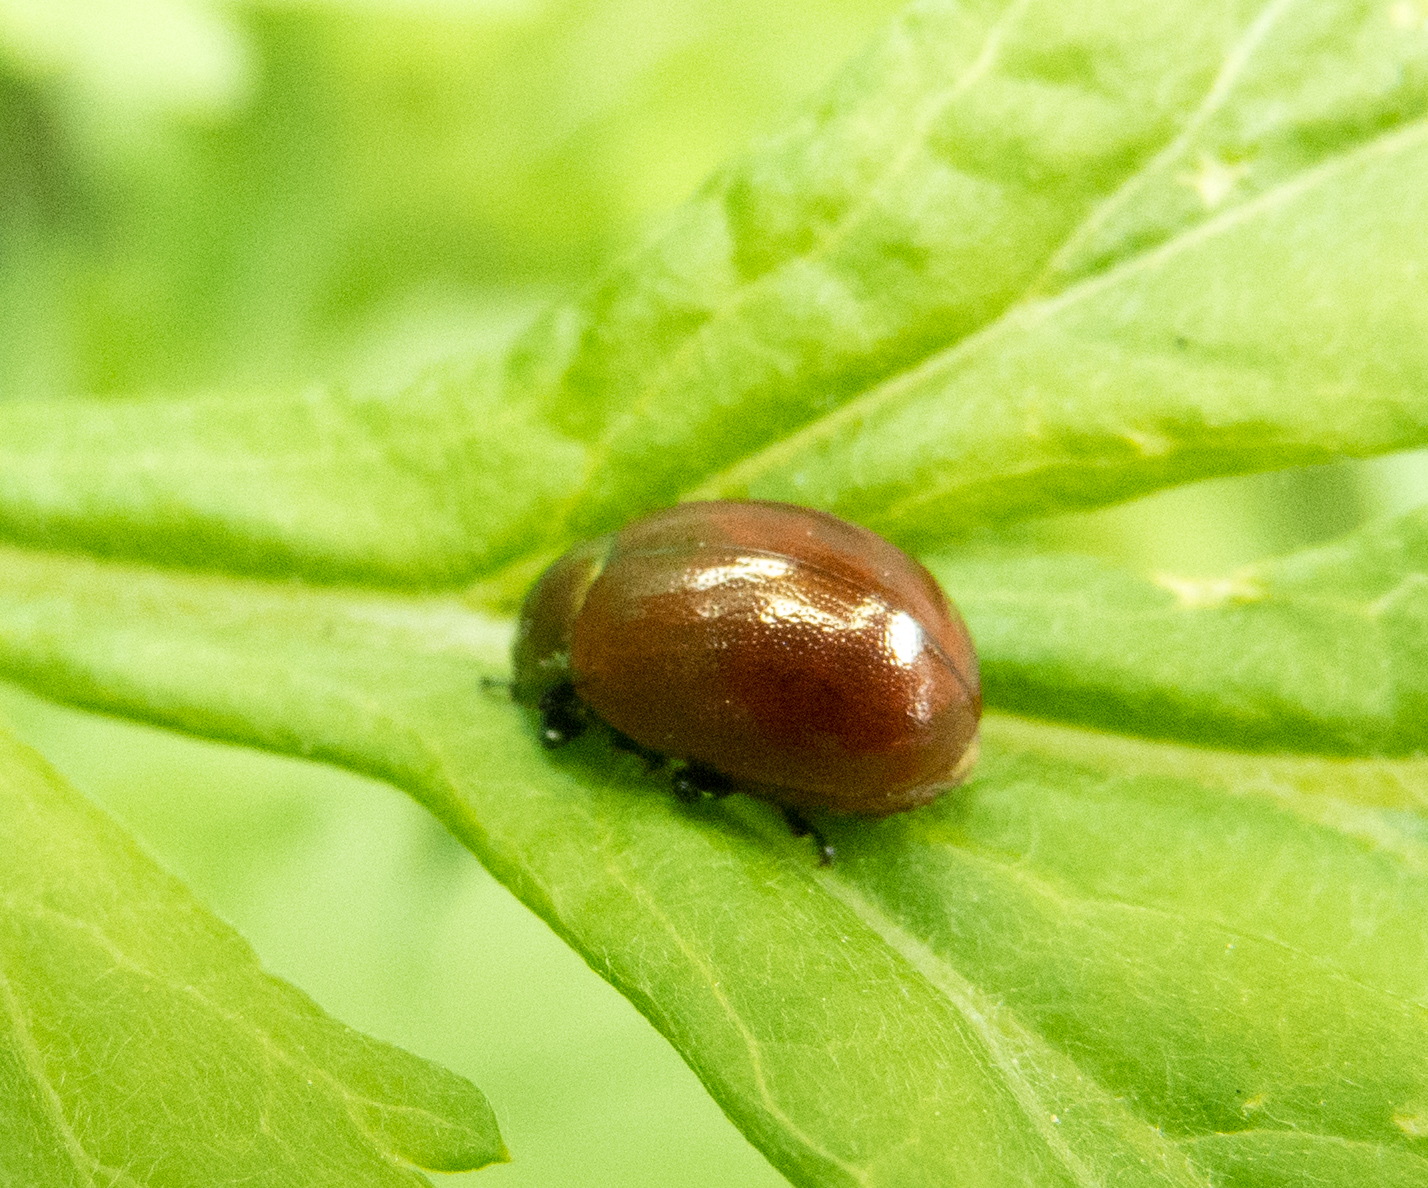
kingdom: Animalia
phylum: Arthropoda
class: Insecta
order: Coleoptera
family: Chrysomelidae
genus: Chrysomela
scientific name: Chrysomela polita
